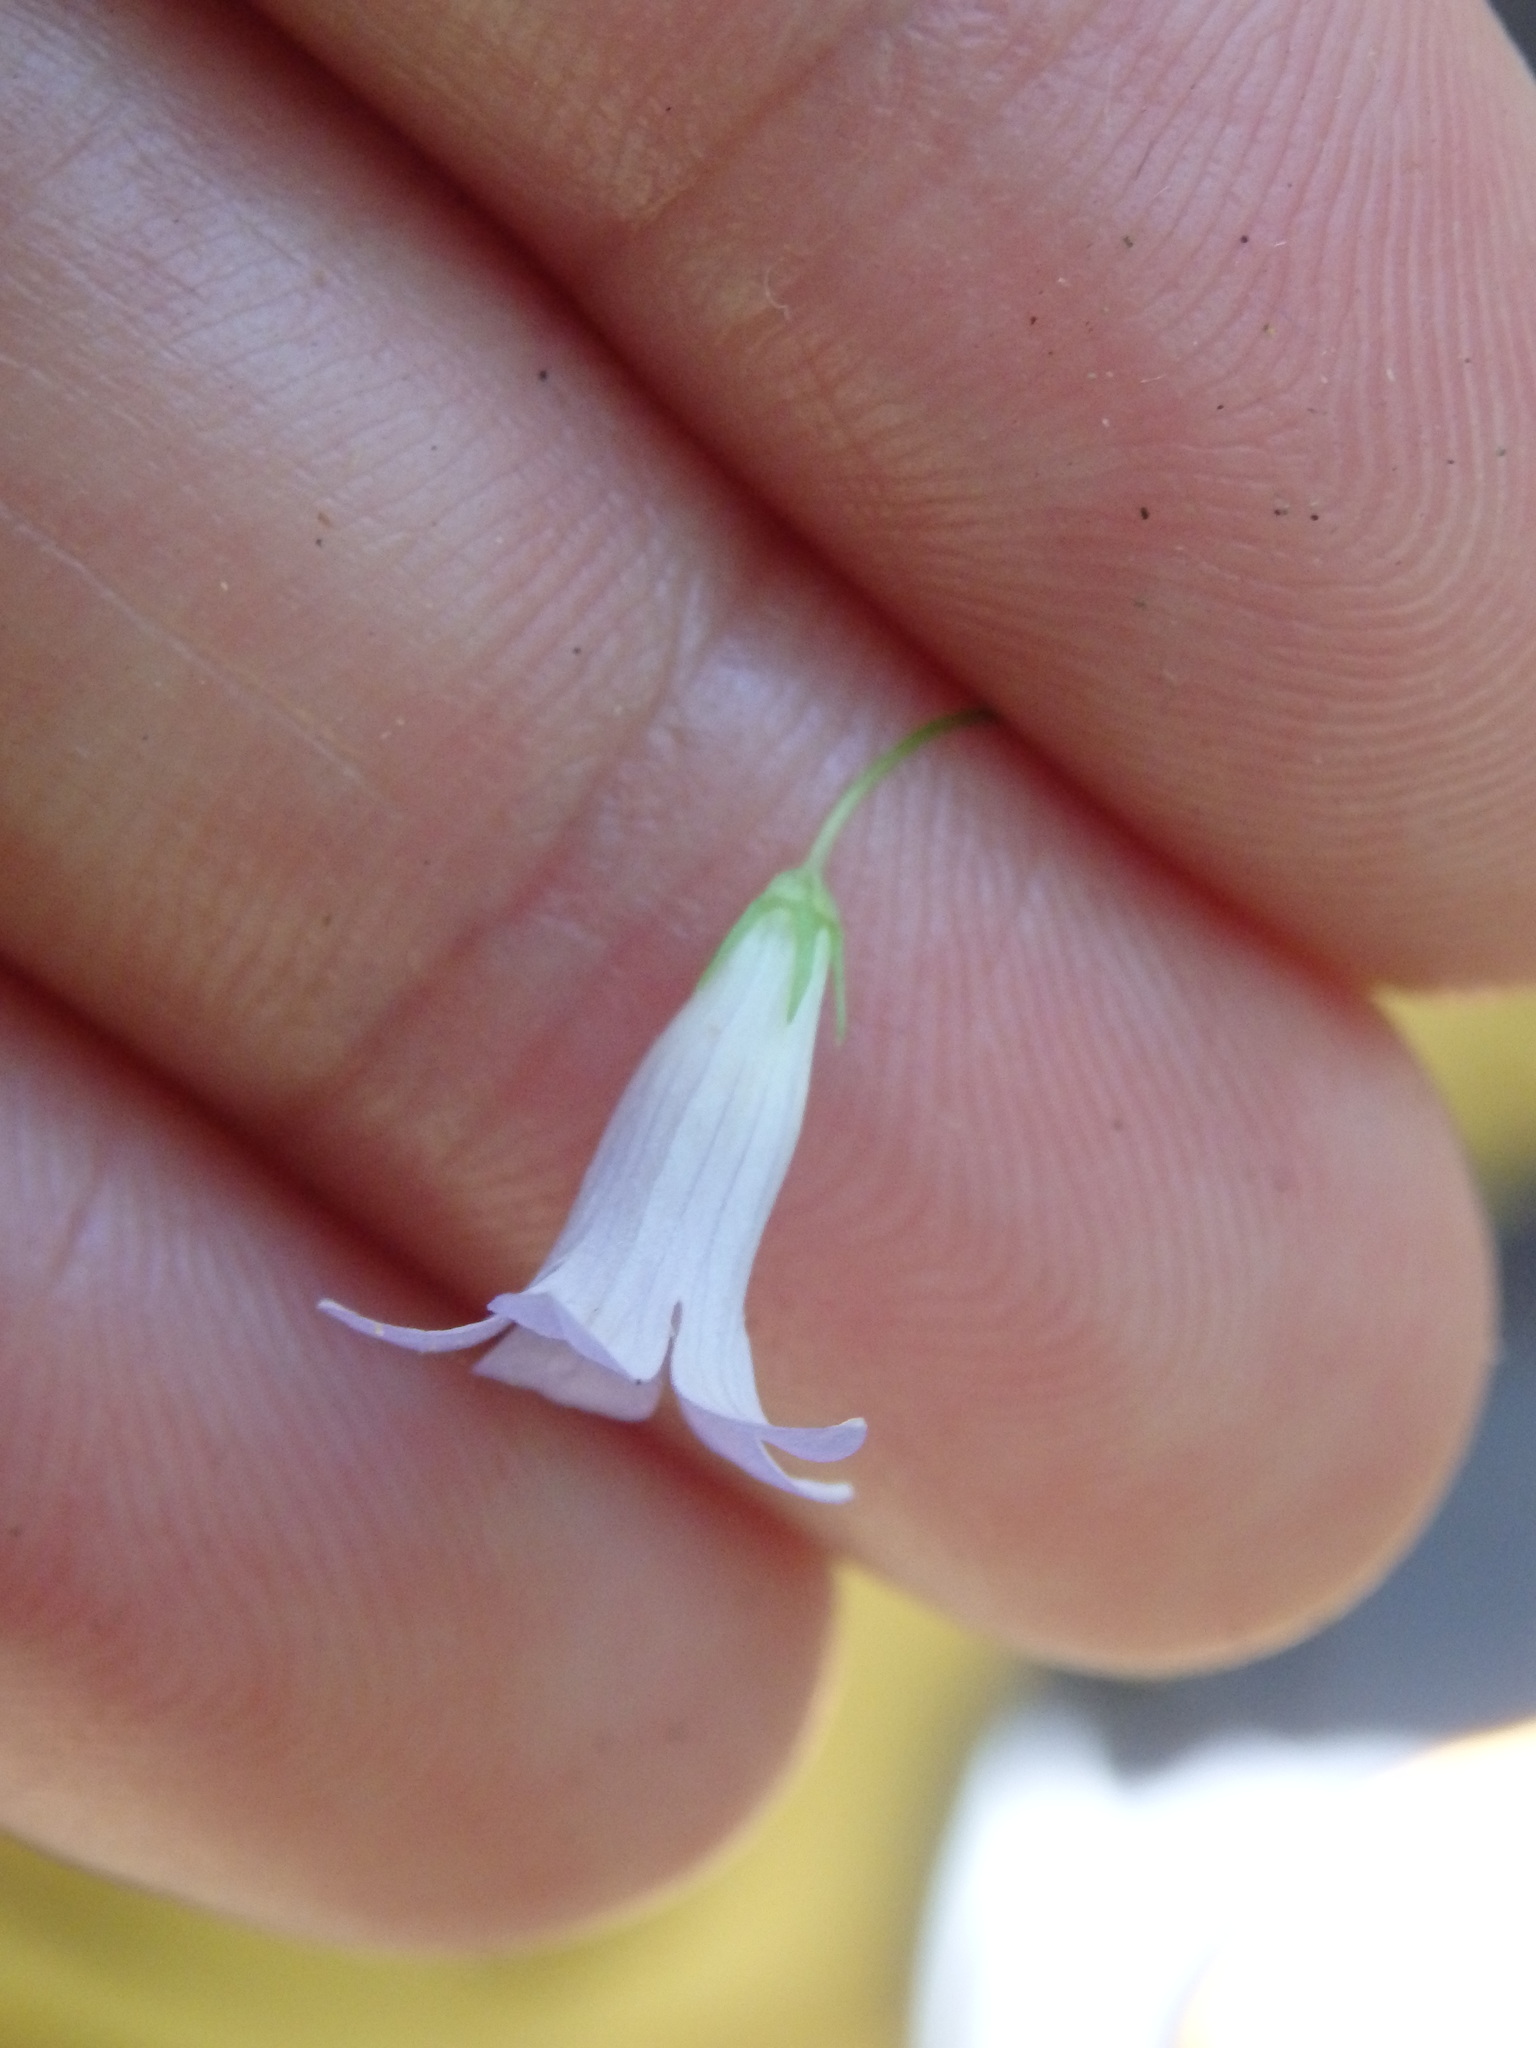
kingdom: Plantae
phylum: Tracheophyta
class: Magnoliopsida
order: Asterales
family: Campanulaceae
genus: Hesperocodon
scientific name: Hesperocodon hederaceus
